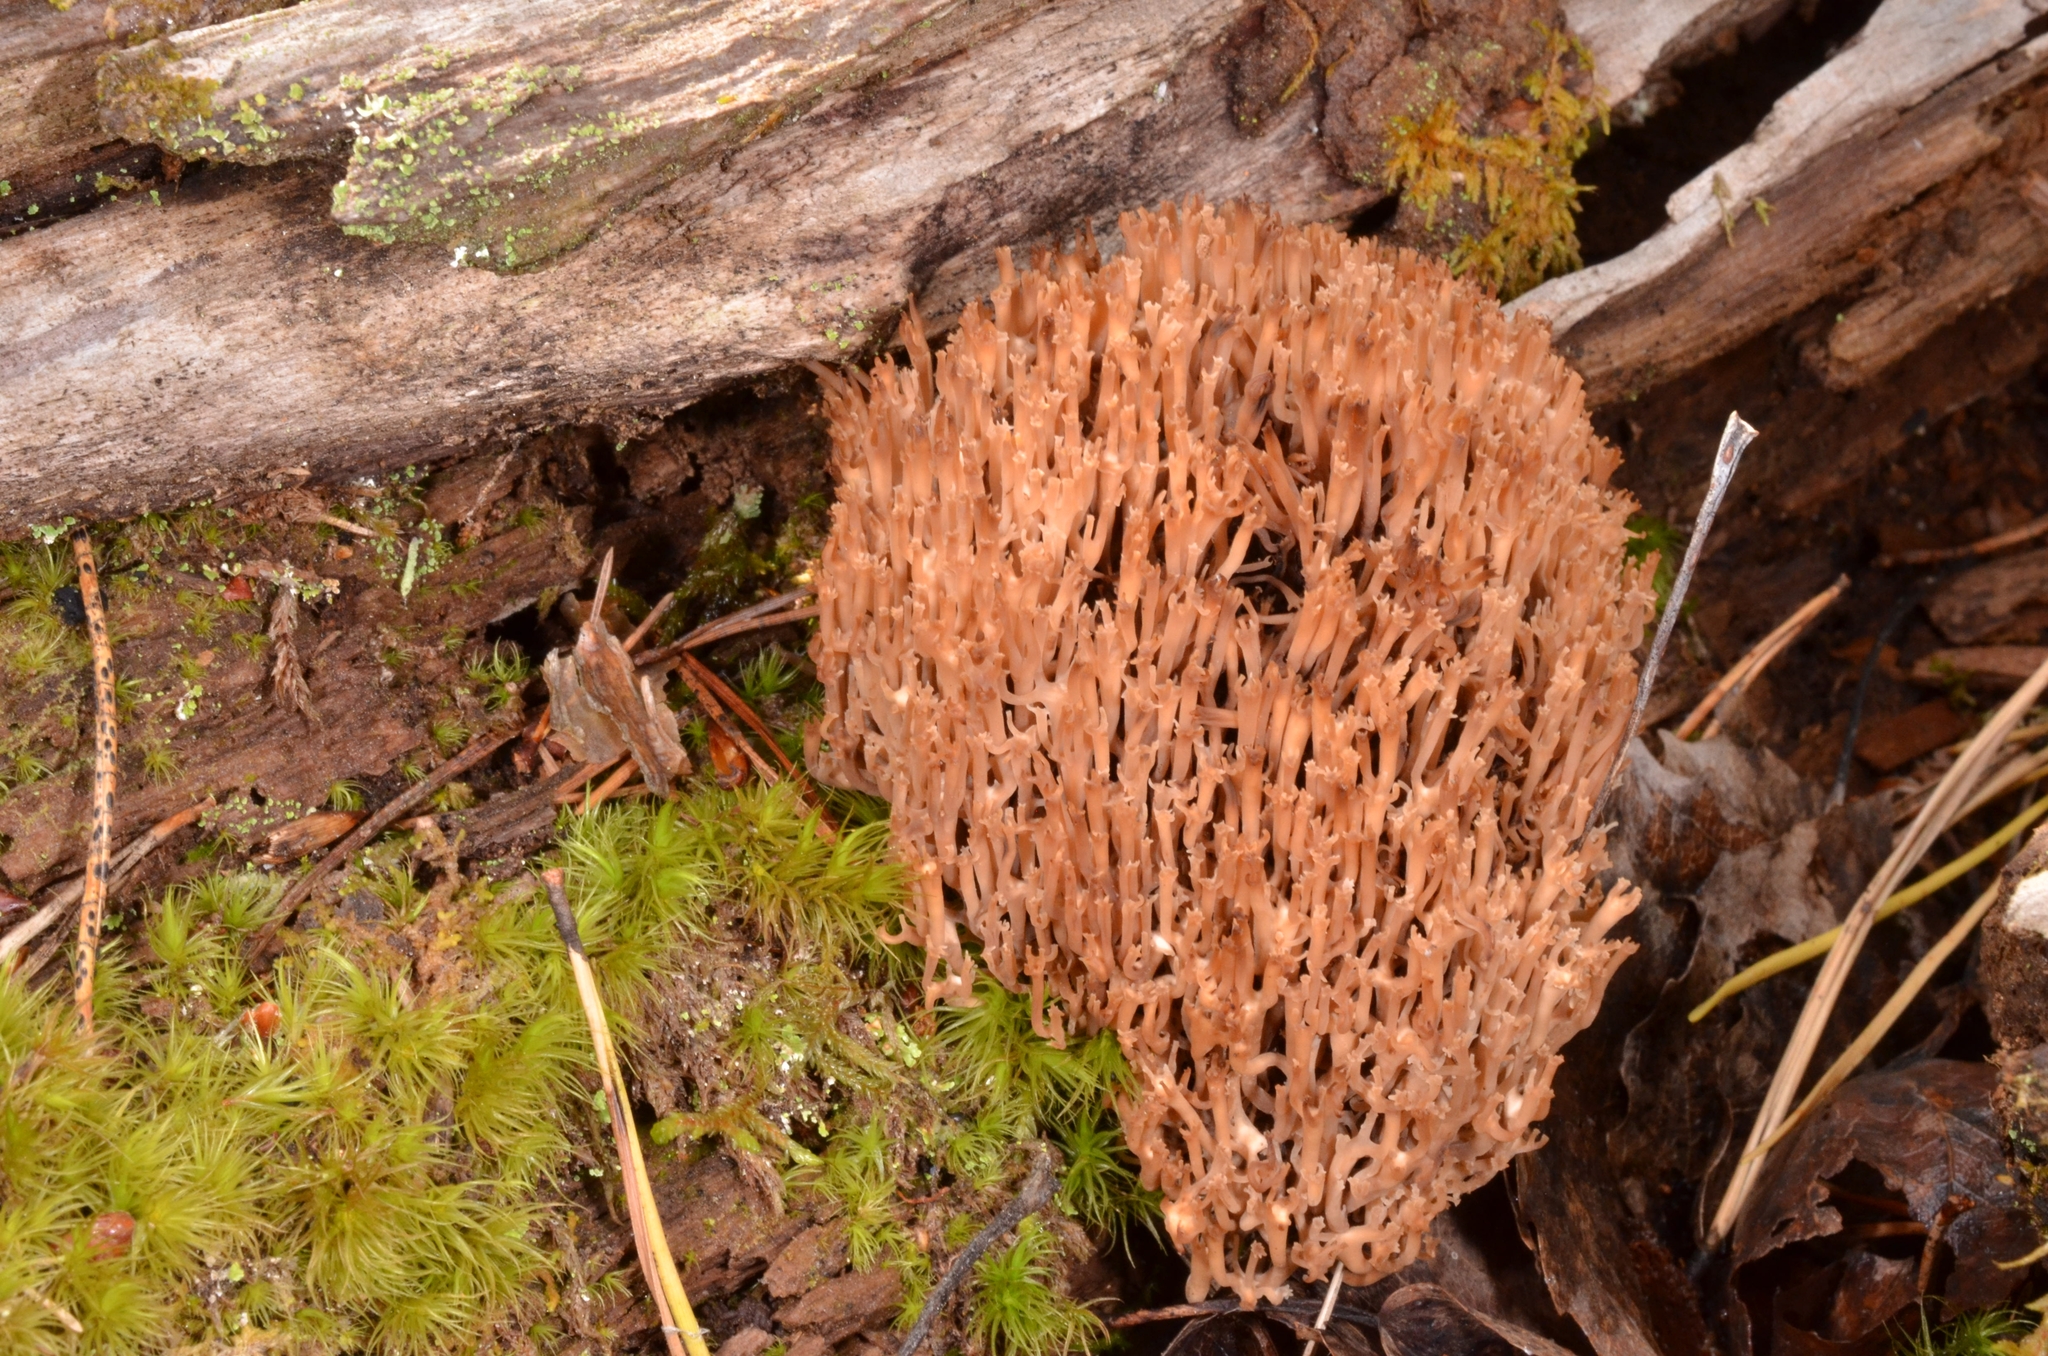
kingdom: Fungi
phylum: Basidiomycota
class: Agaricomycetes
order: Russulales
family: Auriscalpiaceae
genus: Artomyces
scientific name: Artomyces pyxidatus
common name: Crown-tipped coral fungus
